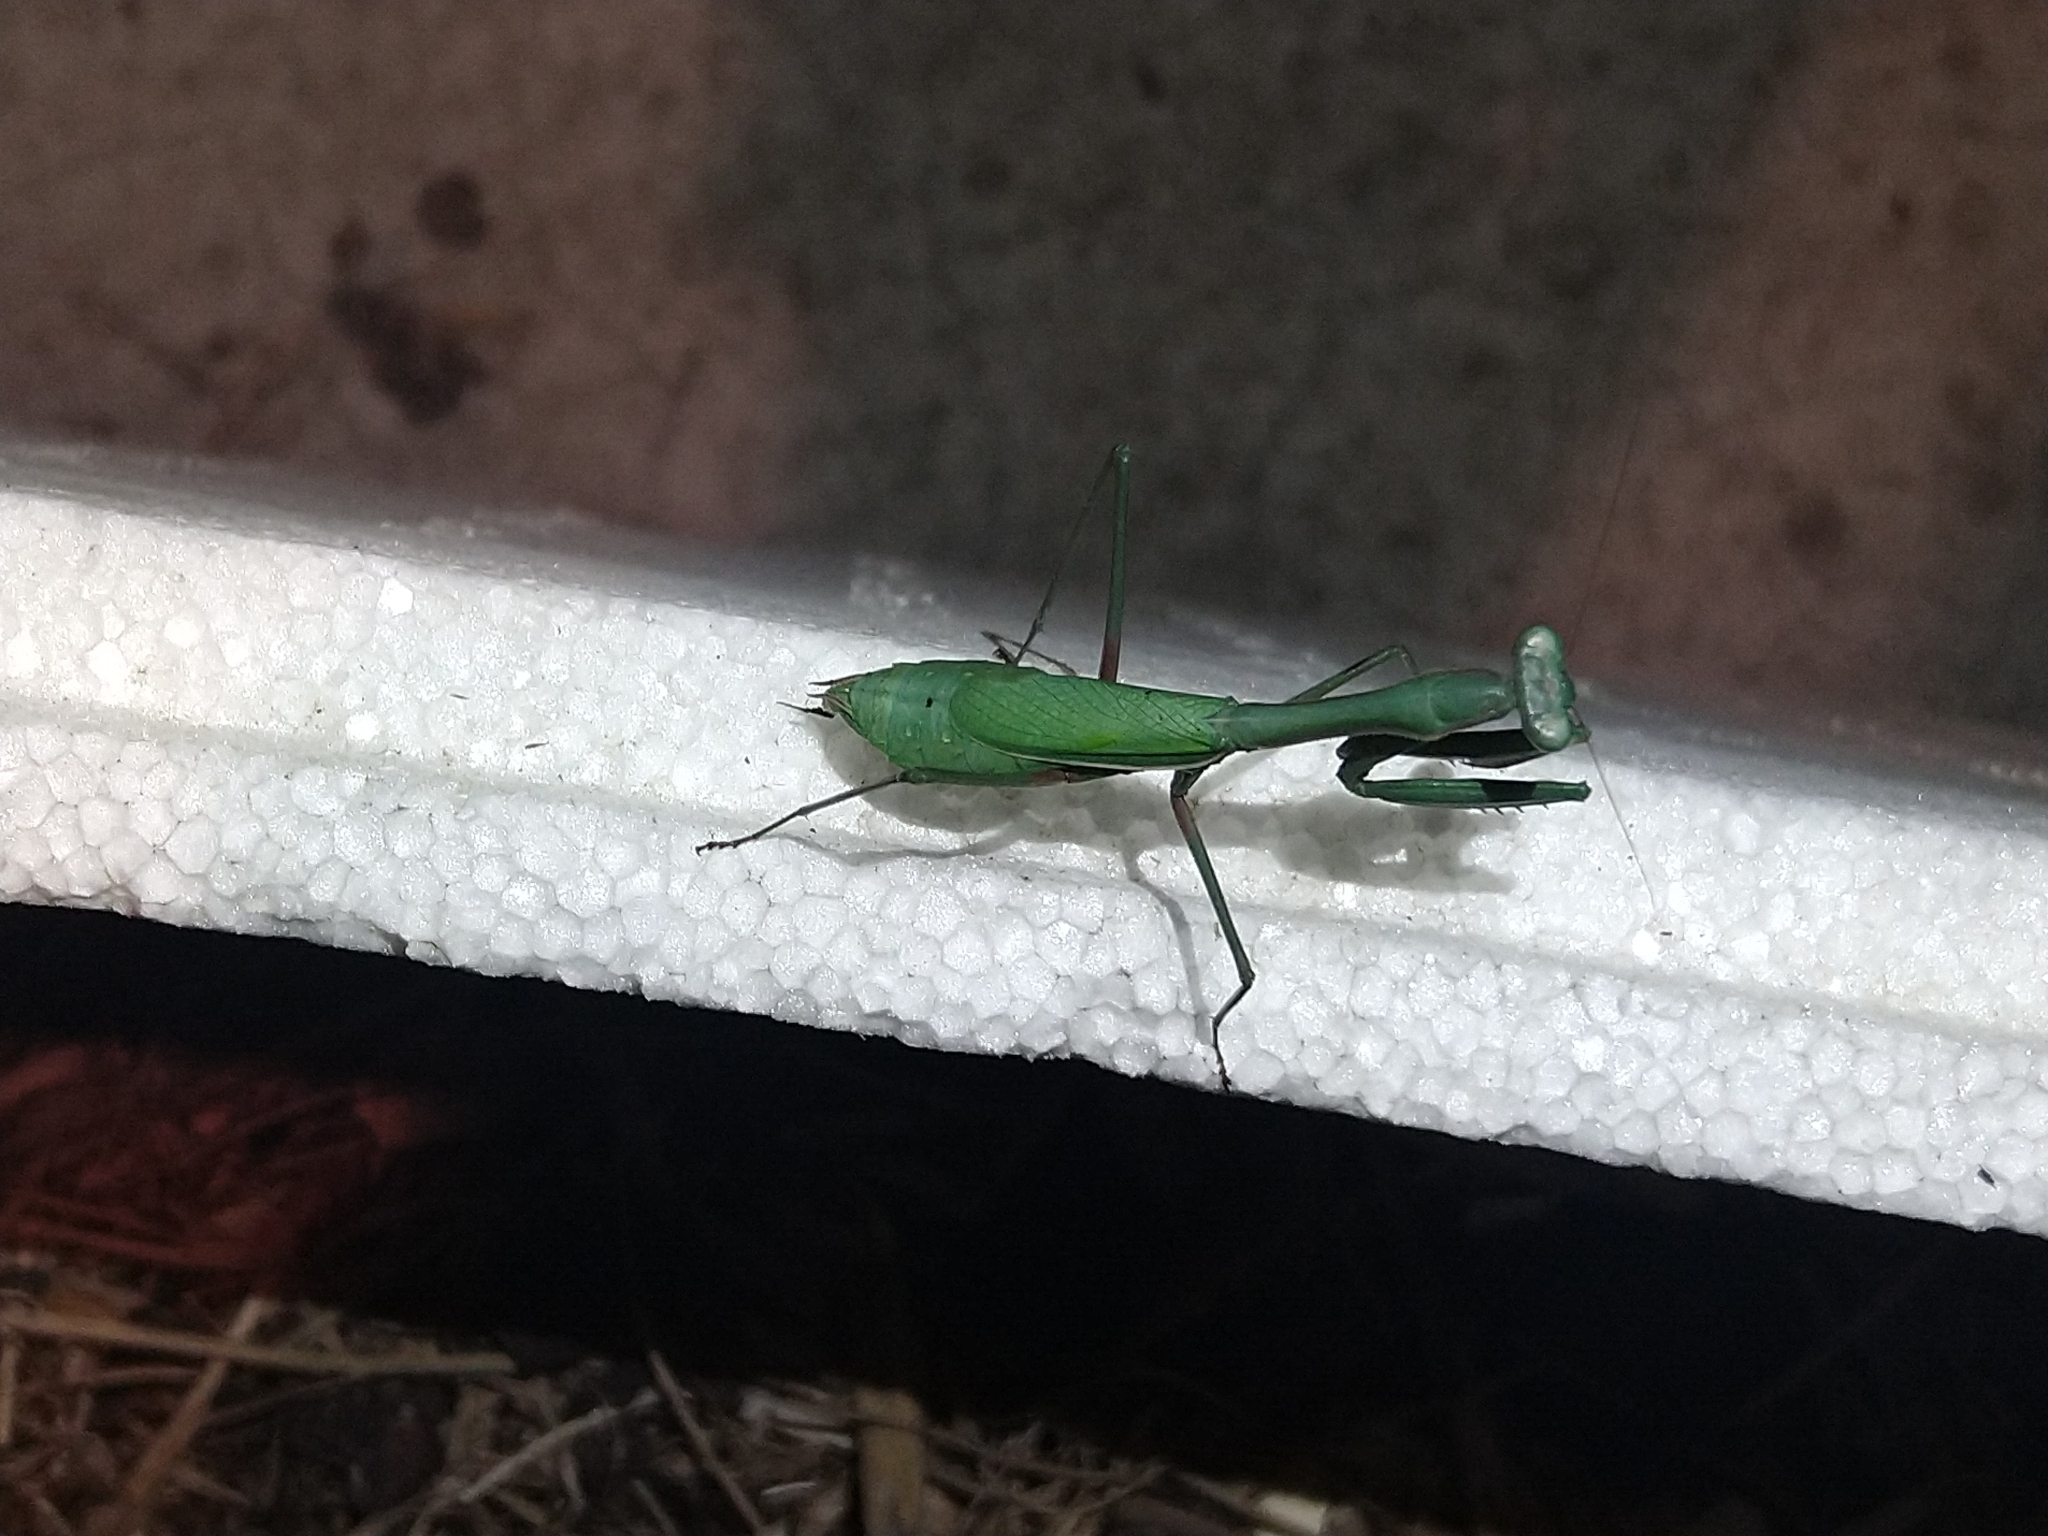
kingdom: Animalia
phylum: Arthropoda
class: Insecta
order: Mantodea
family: Mantidae
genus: Pseudomantis
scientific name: Pseudomantis albofimbriata
